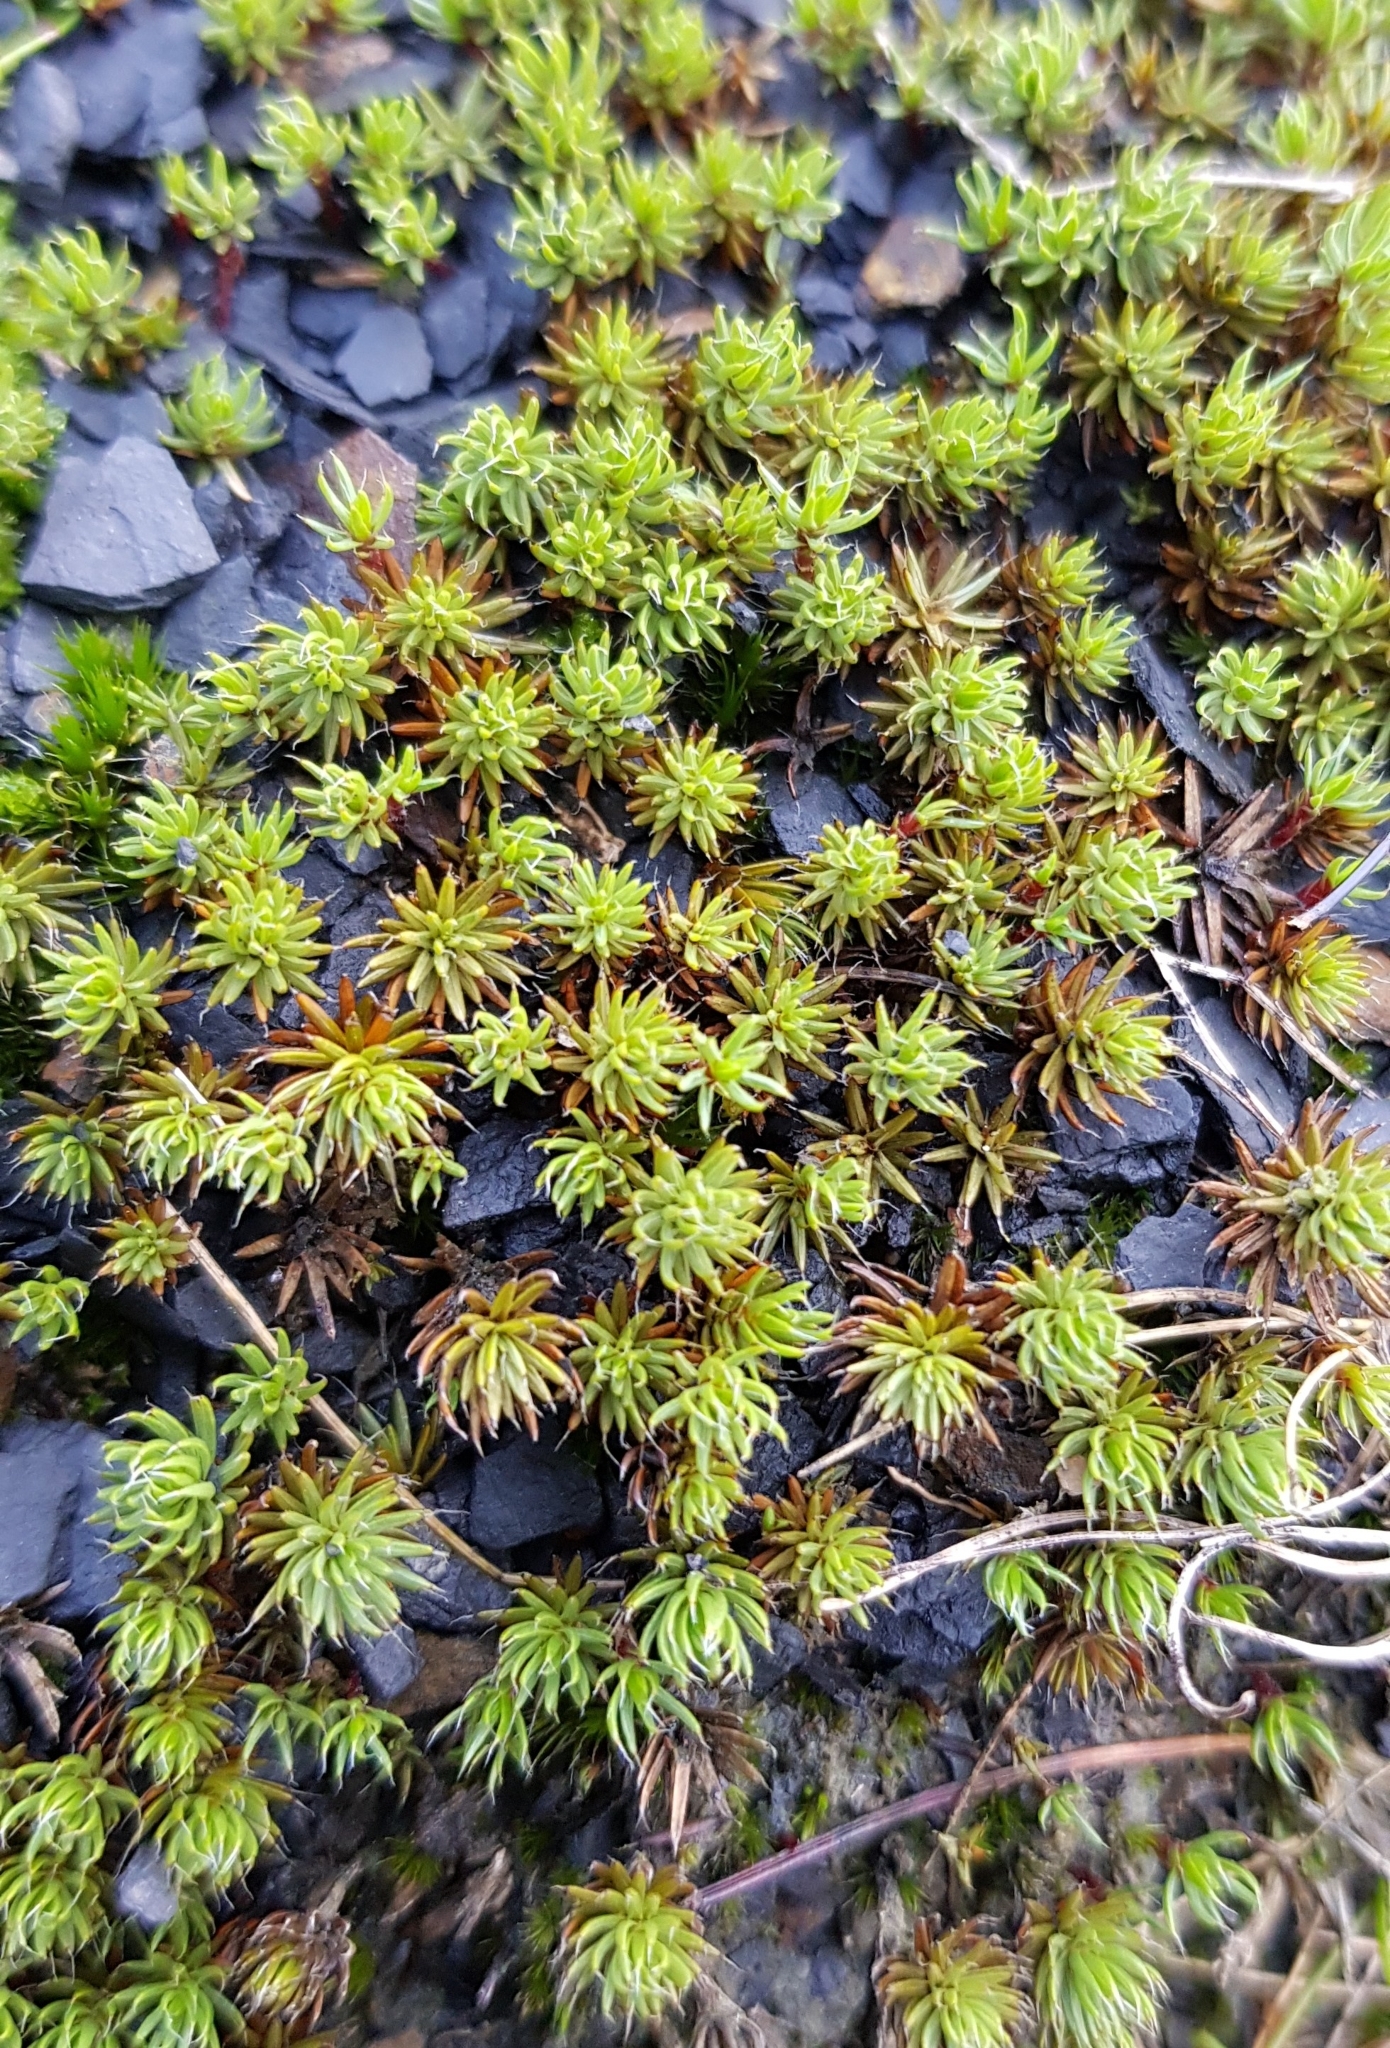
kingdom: Plantae
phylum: Bryophyta
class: Polytrichopsida
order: Polytrichales
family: Polytrichaceae
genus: Polytrichum
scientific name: Polytrichum piliferum
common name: Bristly haircap
